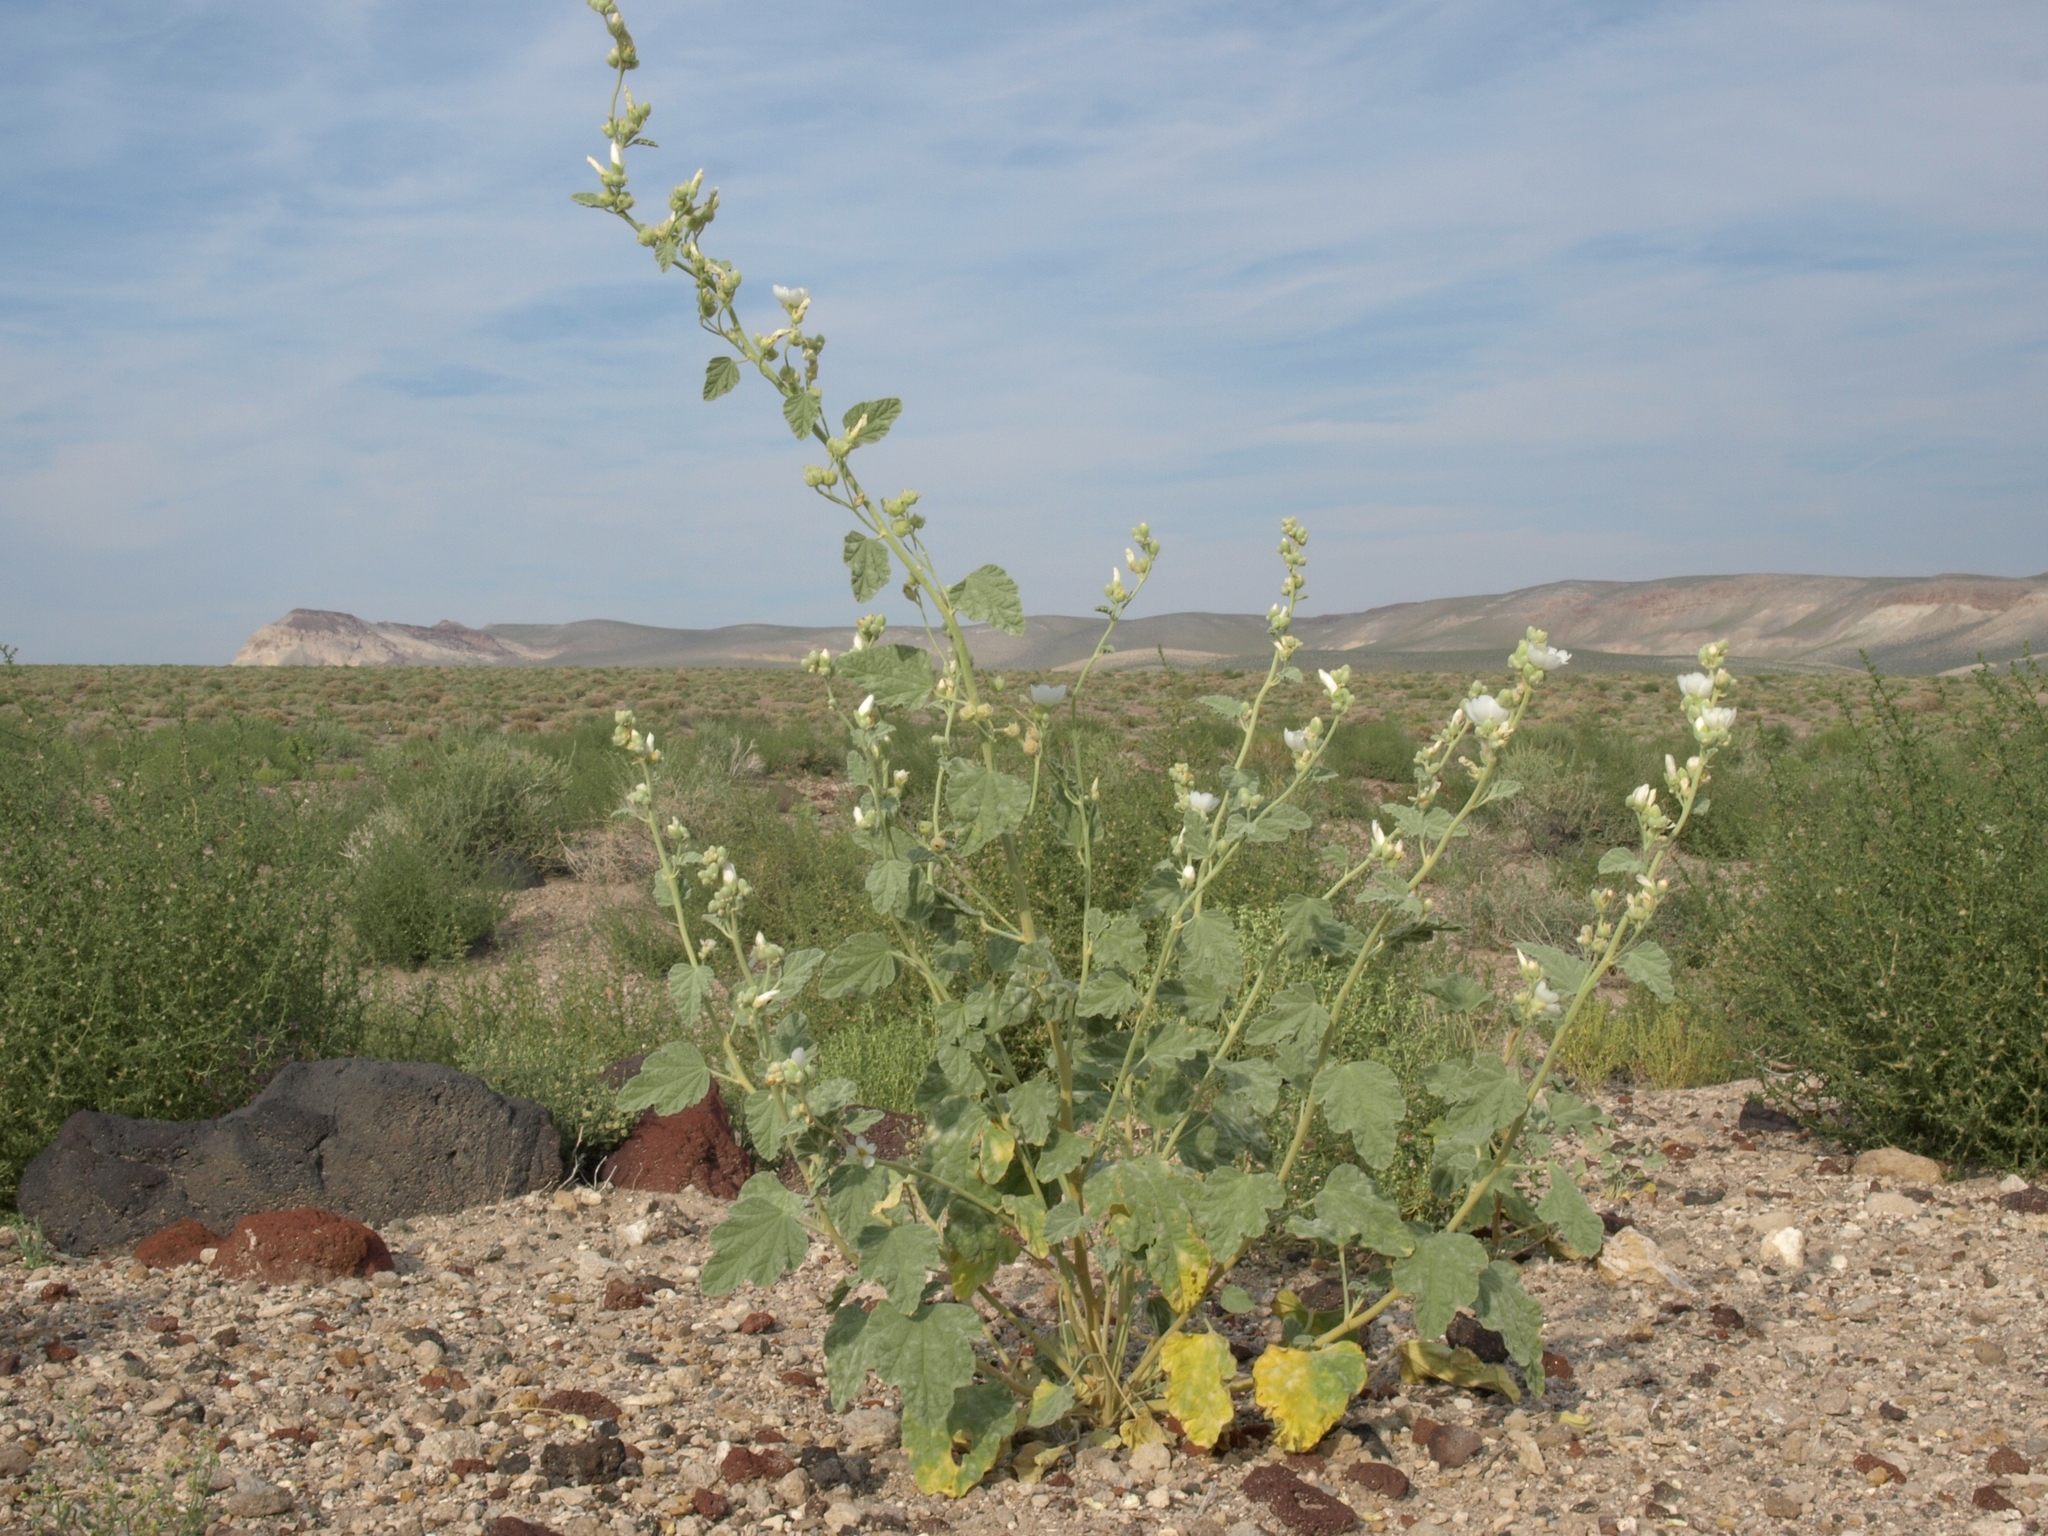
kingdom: Plantae
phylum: Tracheophyta
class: Magnoliopsida
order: Malvales
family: Malvaceae
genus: Sphaeralcea
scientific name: Sphaeralcea ambigua
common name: Apricot globe-mallow
